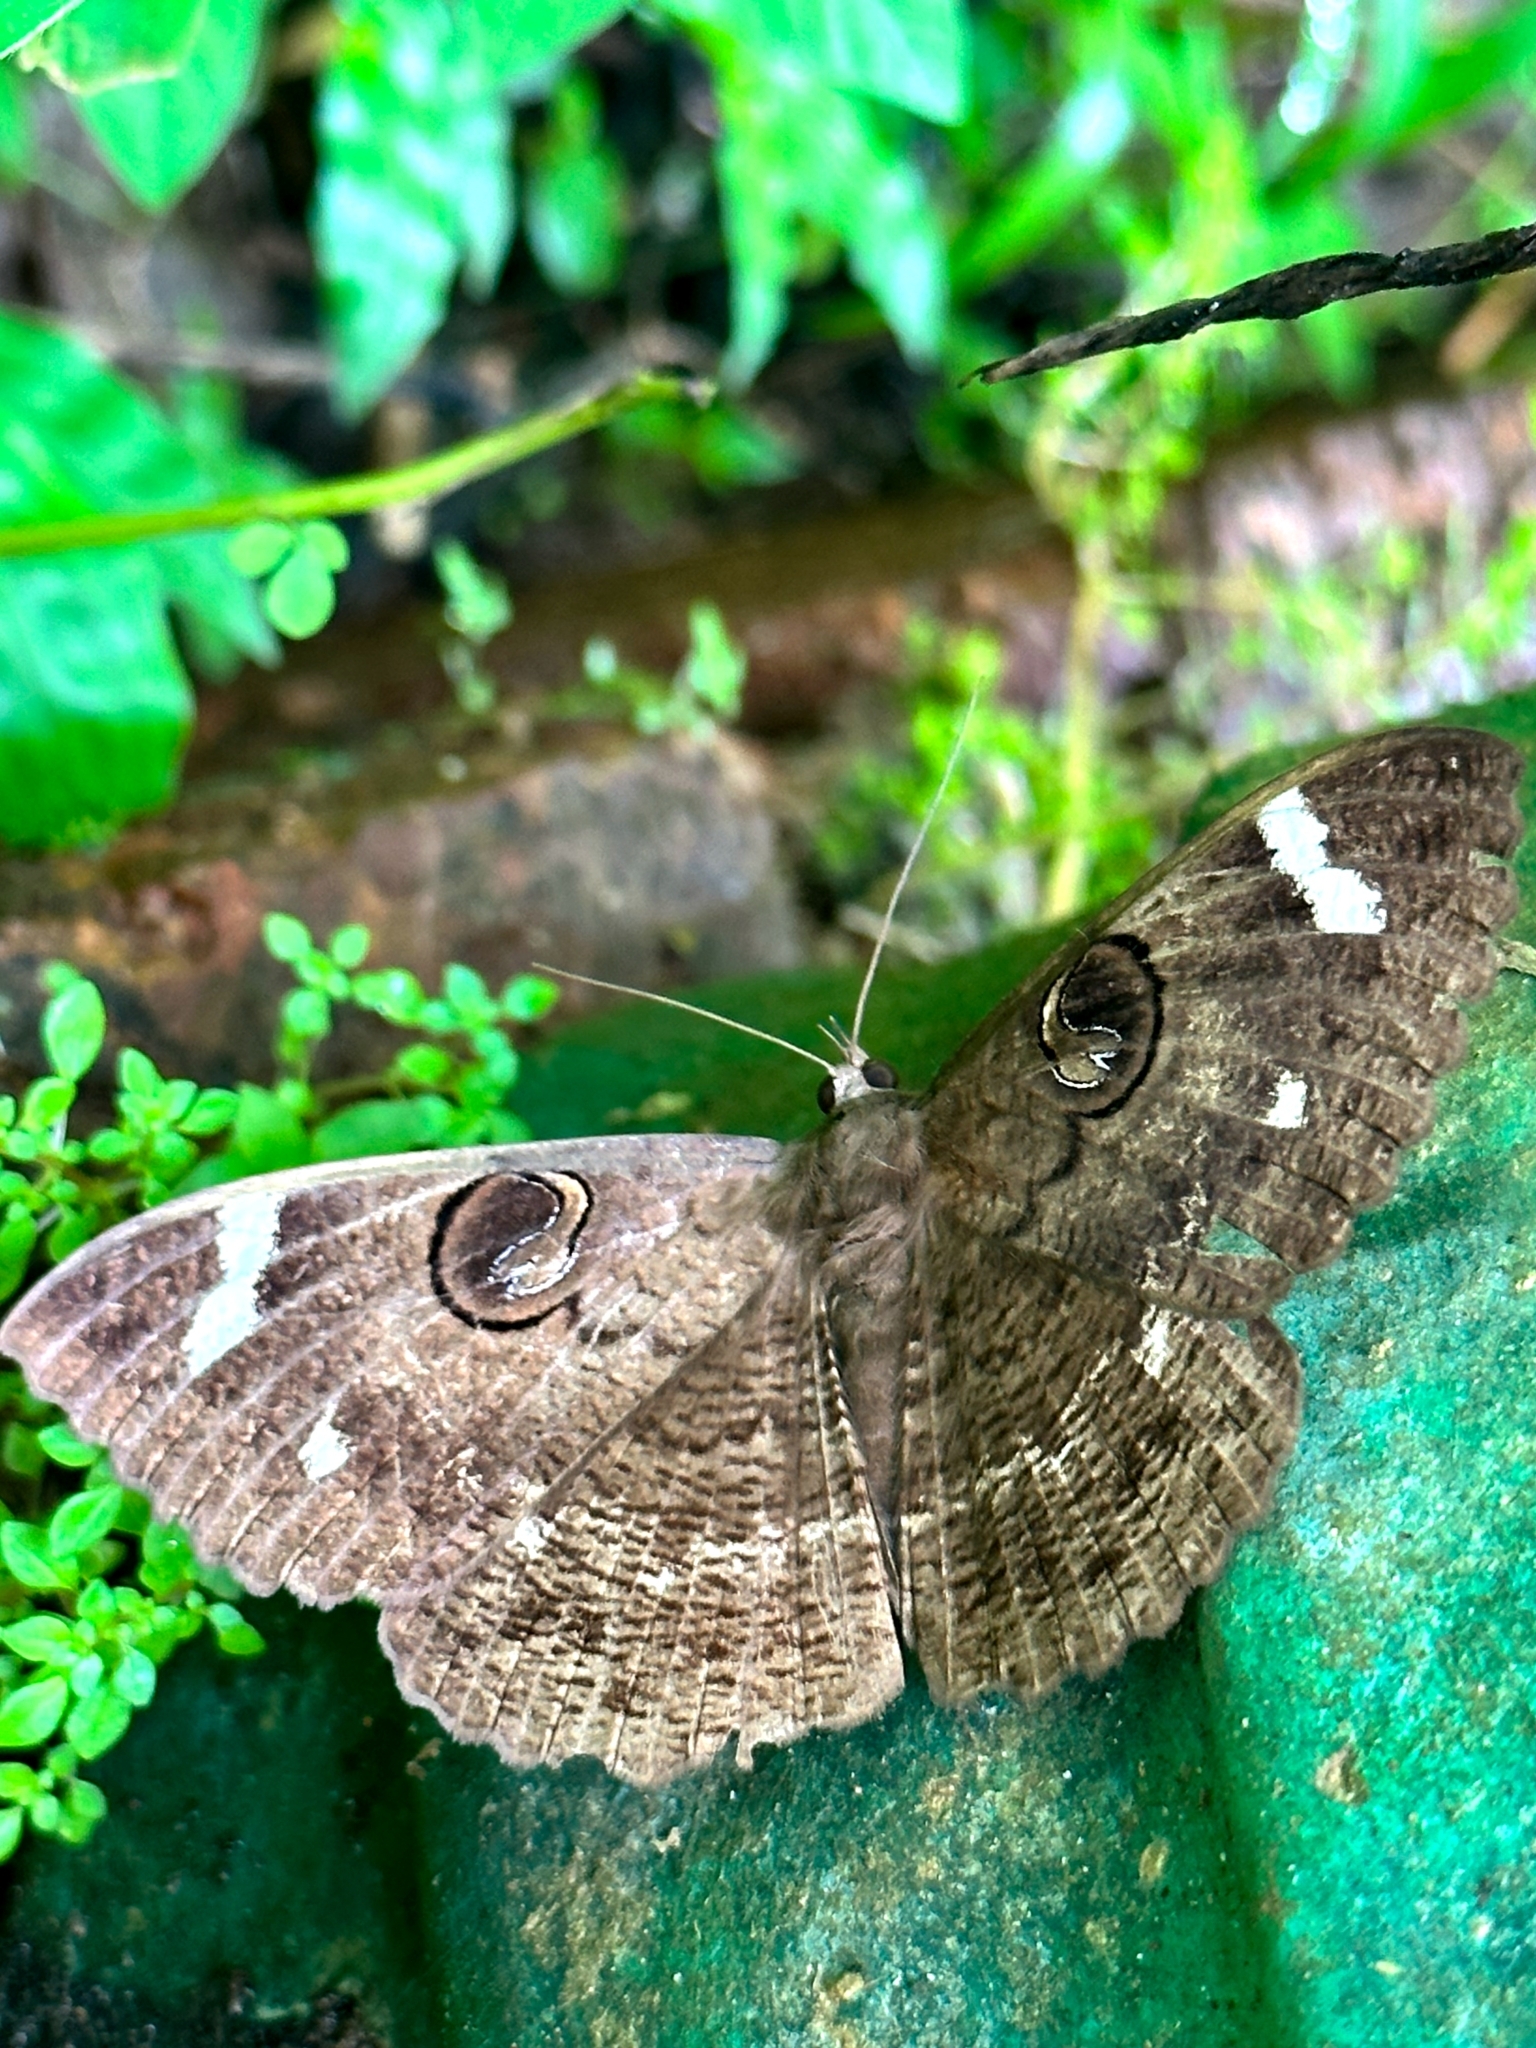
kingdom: Animalia
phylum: Arthropoda
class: Insecta
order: Lepidoptera
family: Erebidae
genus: Erebus
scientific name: Erebus hieroglyphica
